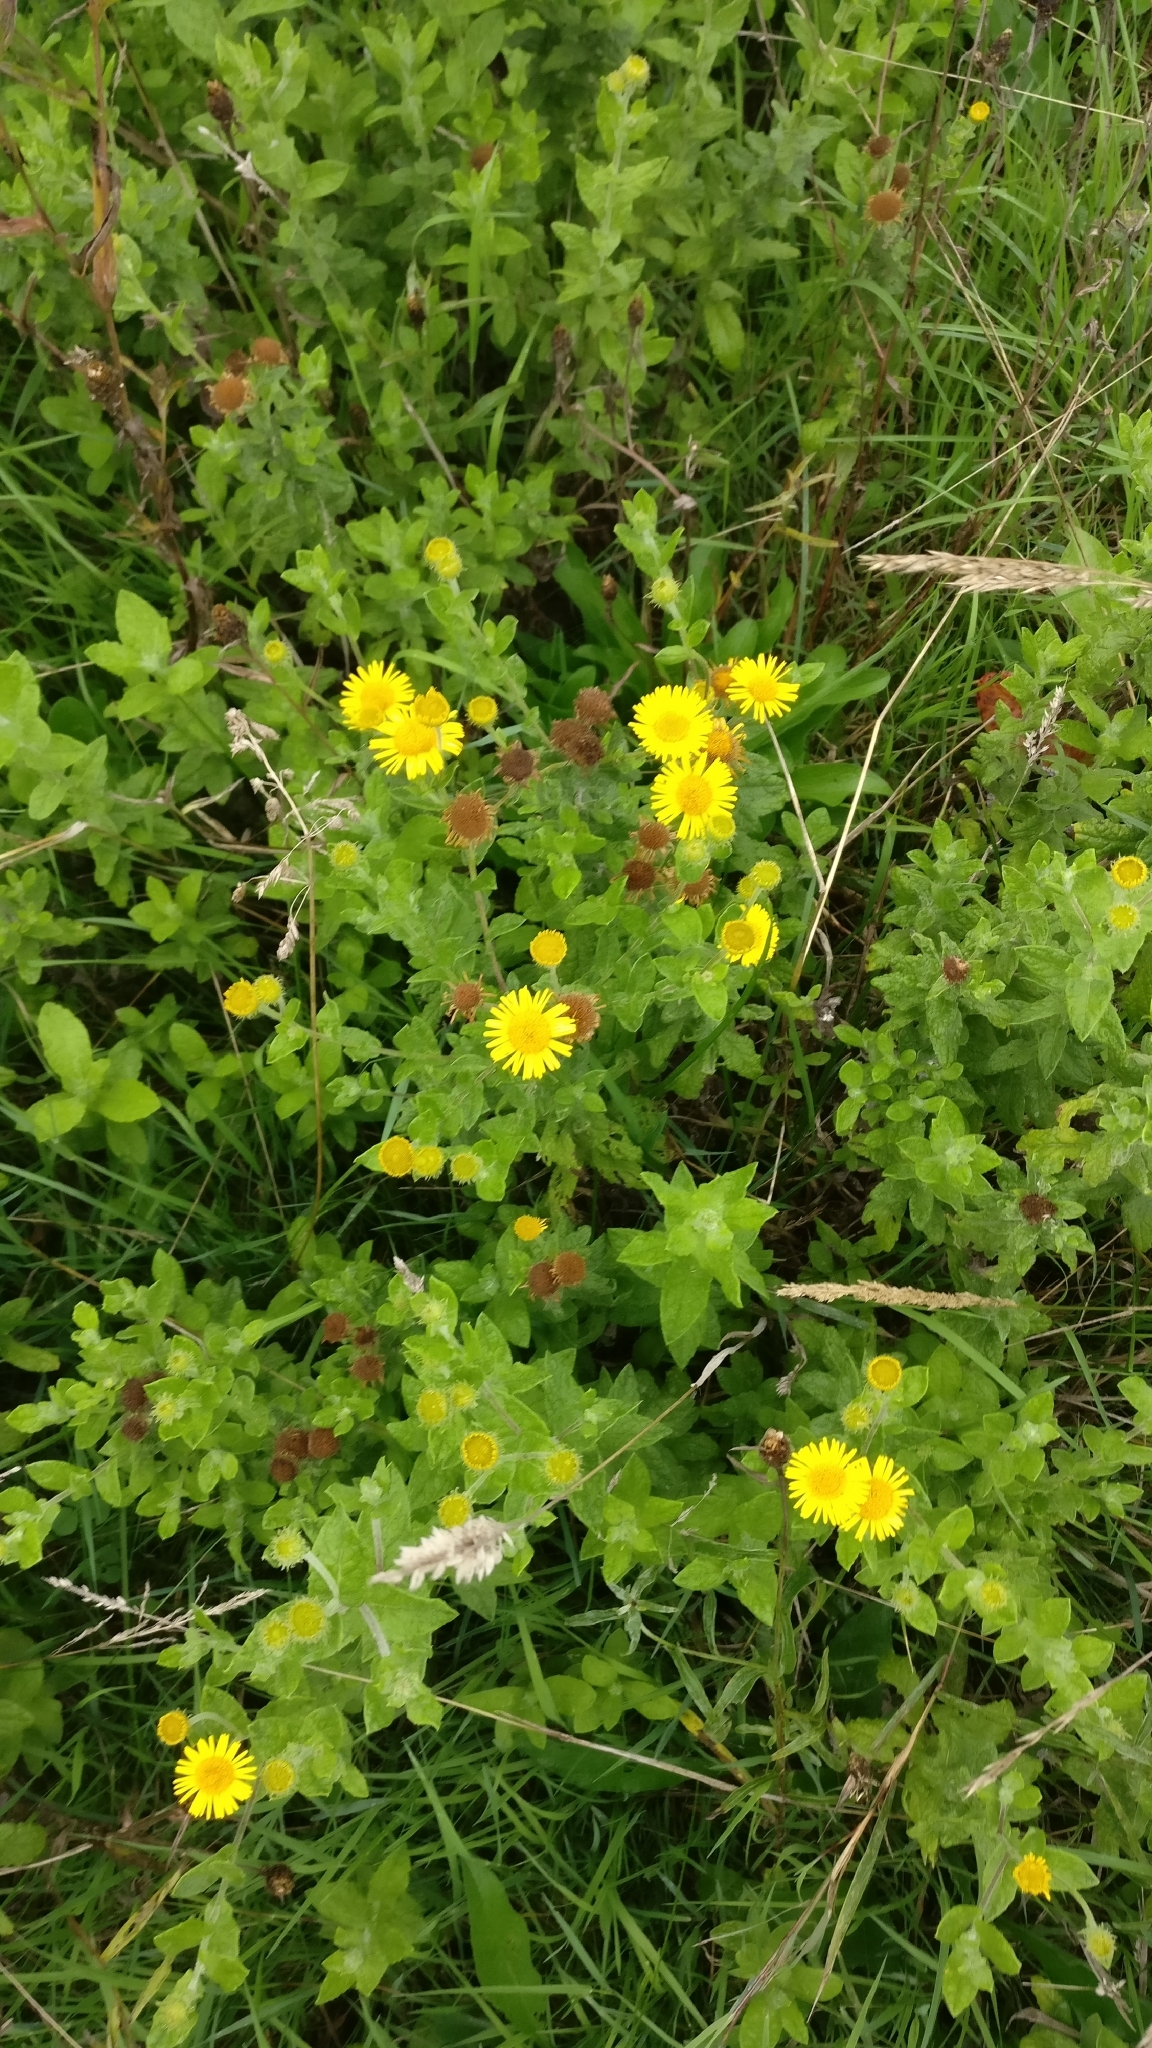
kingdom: Plantae
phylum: Tracheophyta
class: Magnoliopsida
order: Asterales
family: Asteraceae
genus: Pulicaria
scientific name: Pulicaria dysenterica
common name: Common fleabane
